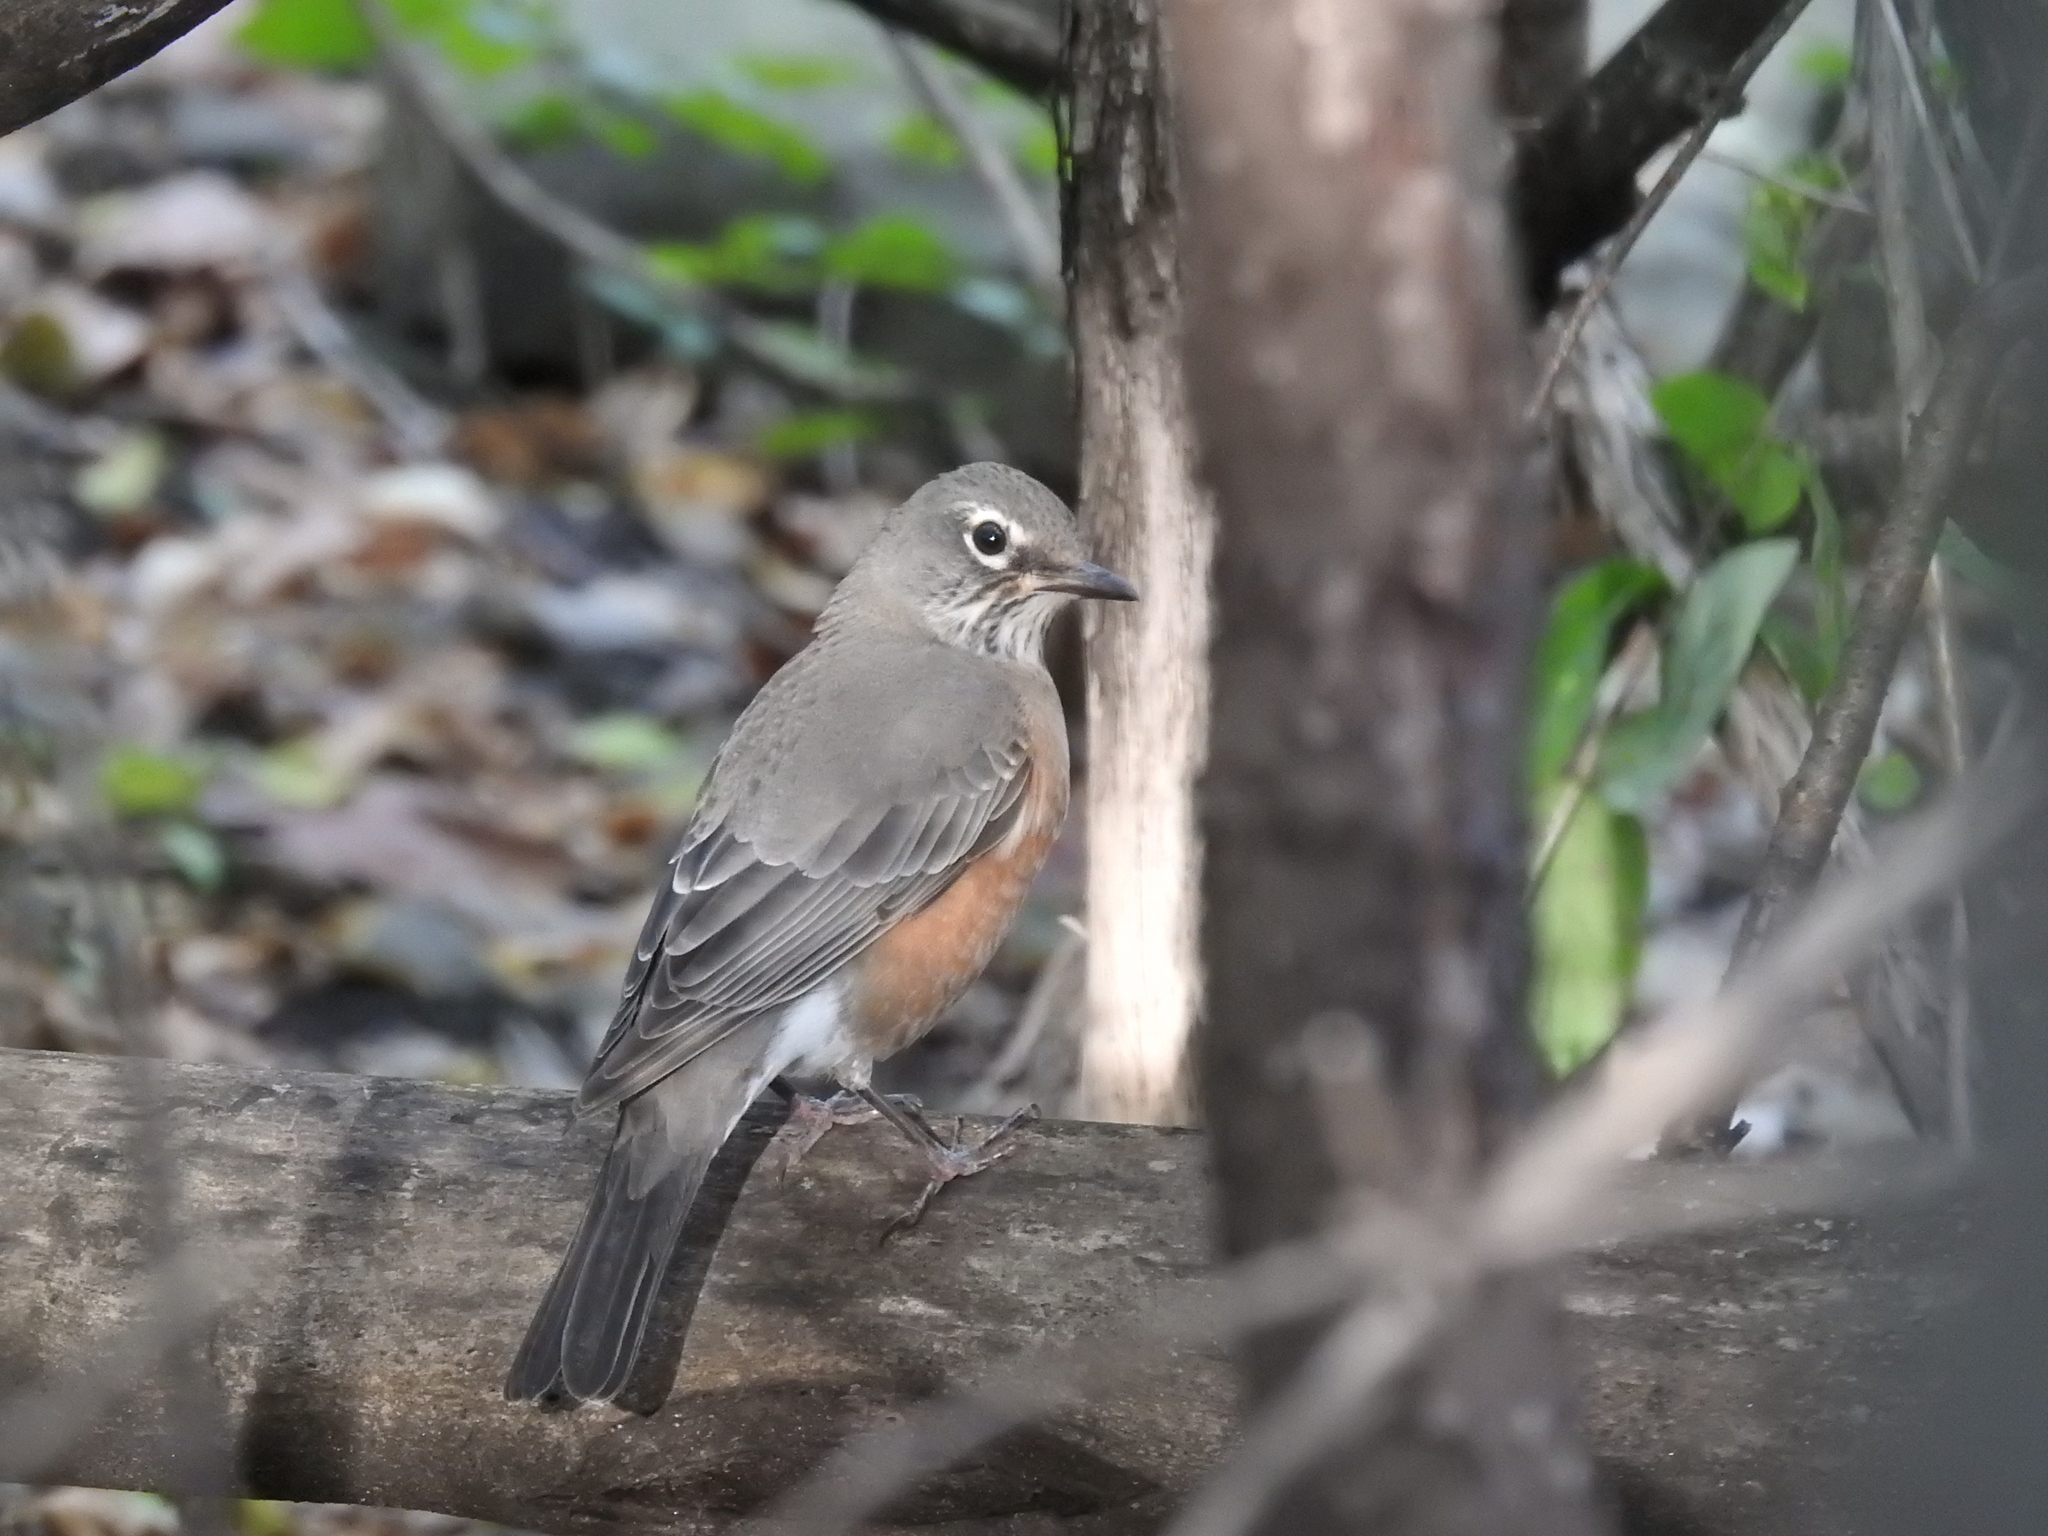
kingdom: Animalia
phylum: Chordata
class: Aves
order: Passeriformes
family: Turdidae
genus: Turdus
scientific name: Turdus migratorius
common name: American robin
